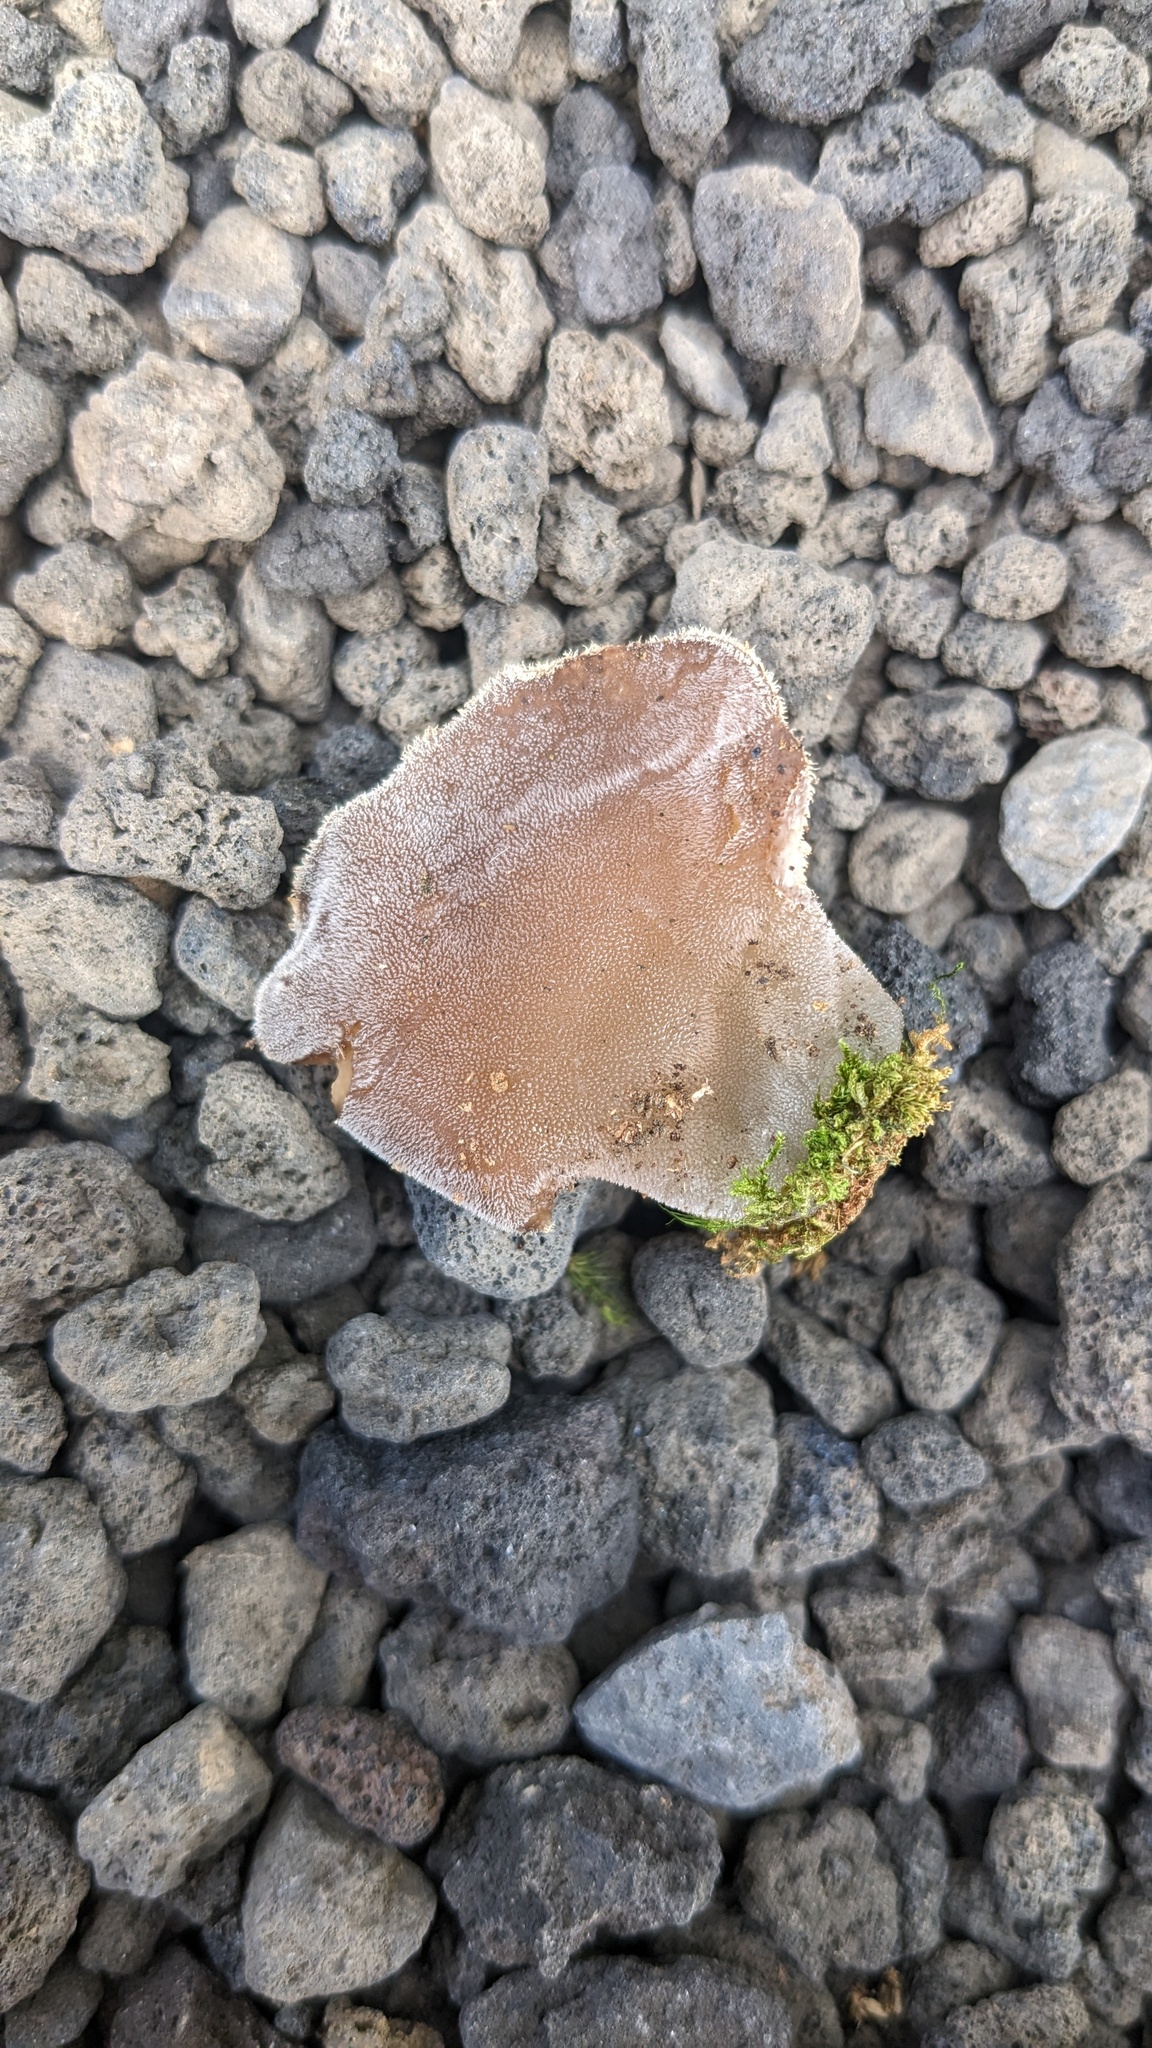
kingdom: Fungi
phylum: Basidiomycota
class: Agaricomycetes
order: Auriculariales
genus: Pseudohydnum
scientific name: Pseudohydnum gelatinosum
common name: Jelly tongue
